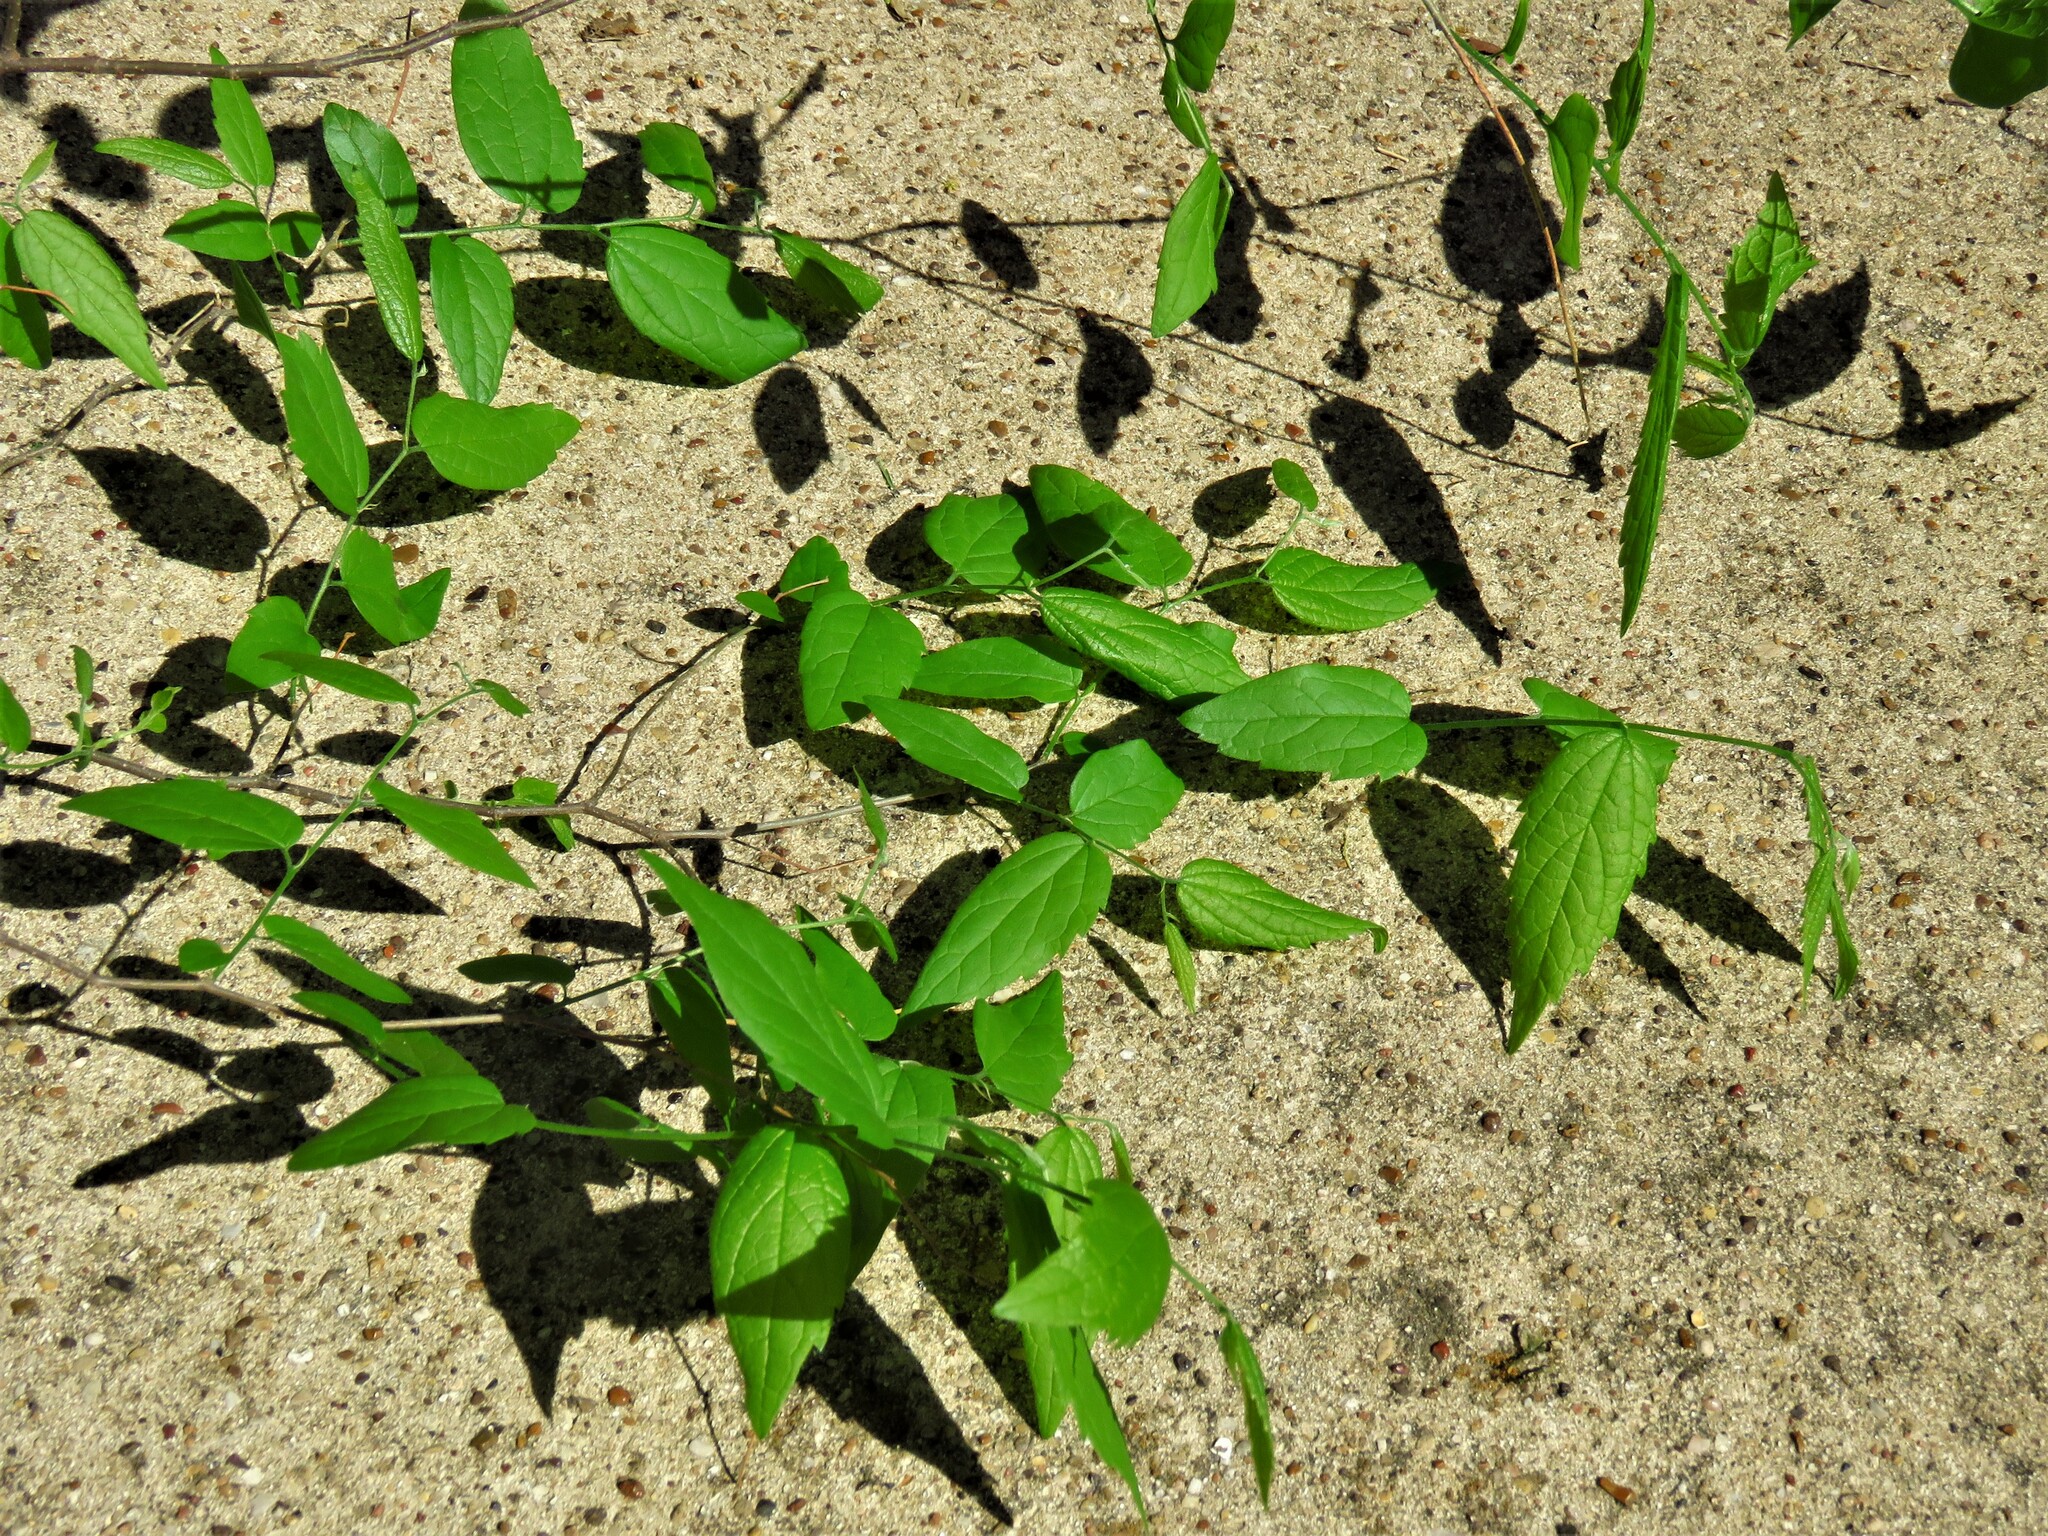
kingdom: Plantae
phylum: Tracheophyta
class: Magnoliopsida
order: Rosales
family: Cannabaceae
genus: Celtis
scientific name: Celtis laevigata
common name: Sugarberry
